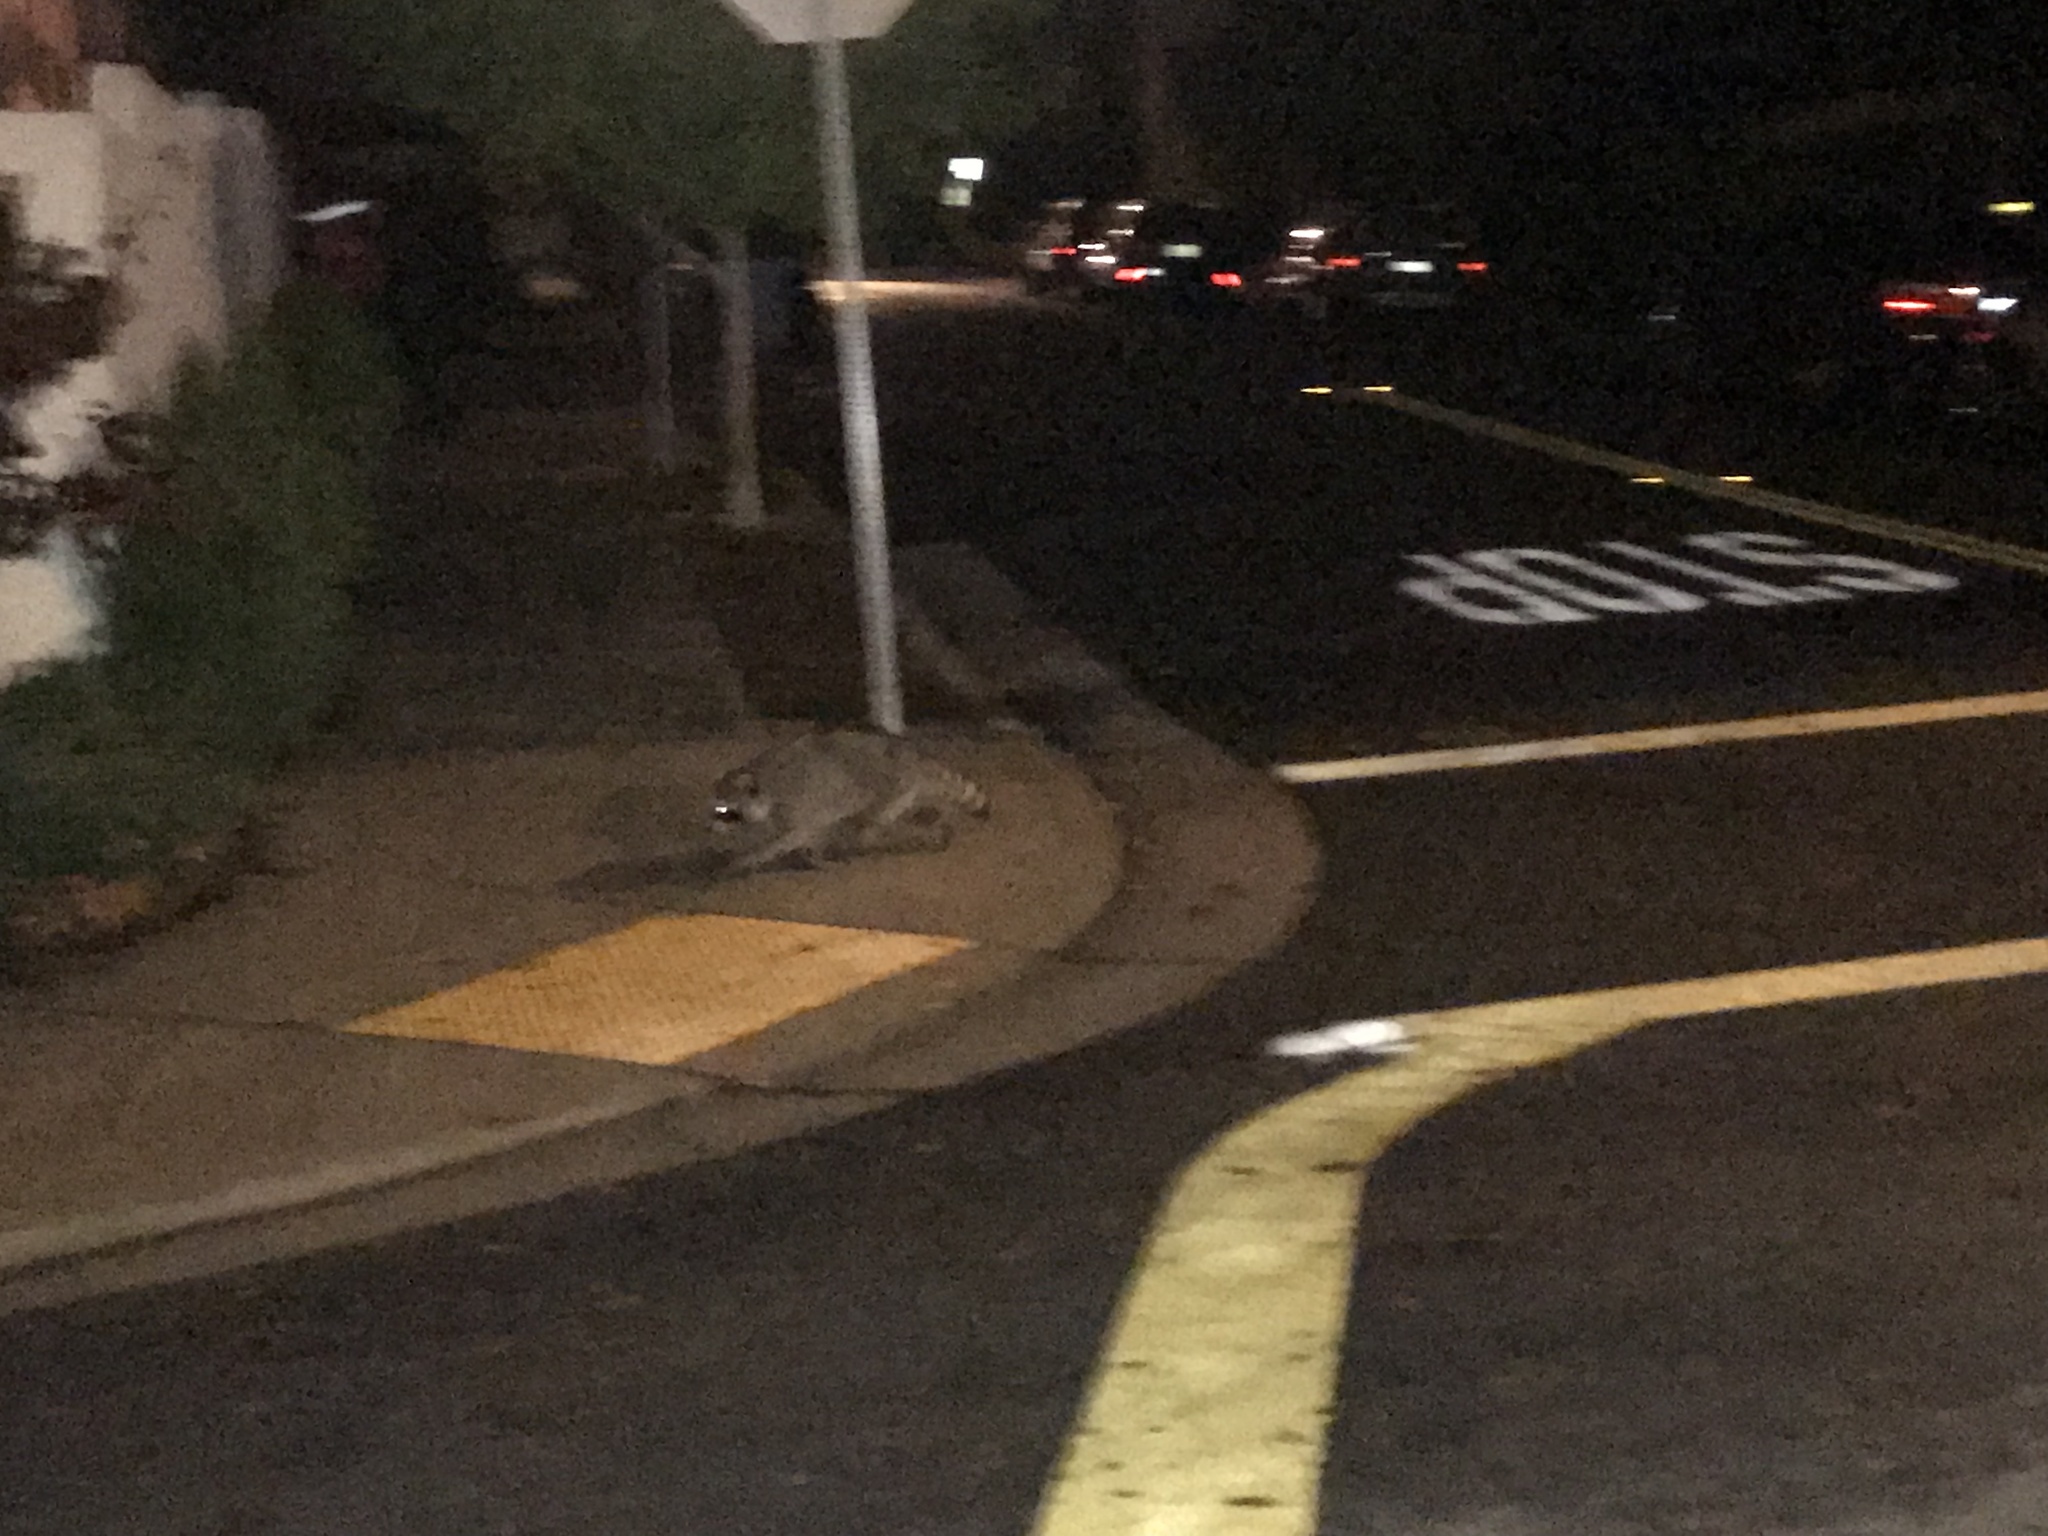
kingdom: Animalia
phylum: Chordata
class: Mammalia
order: Carnivora
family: Procyonidae
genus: Procyon
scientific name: Procyon lotor
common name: Raccoon
